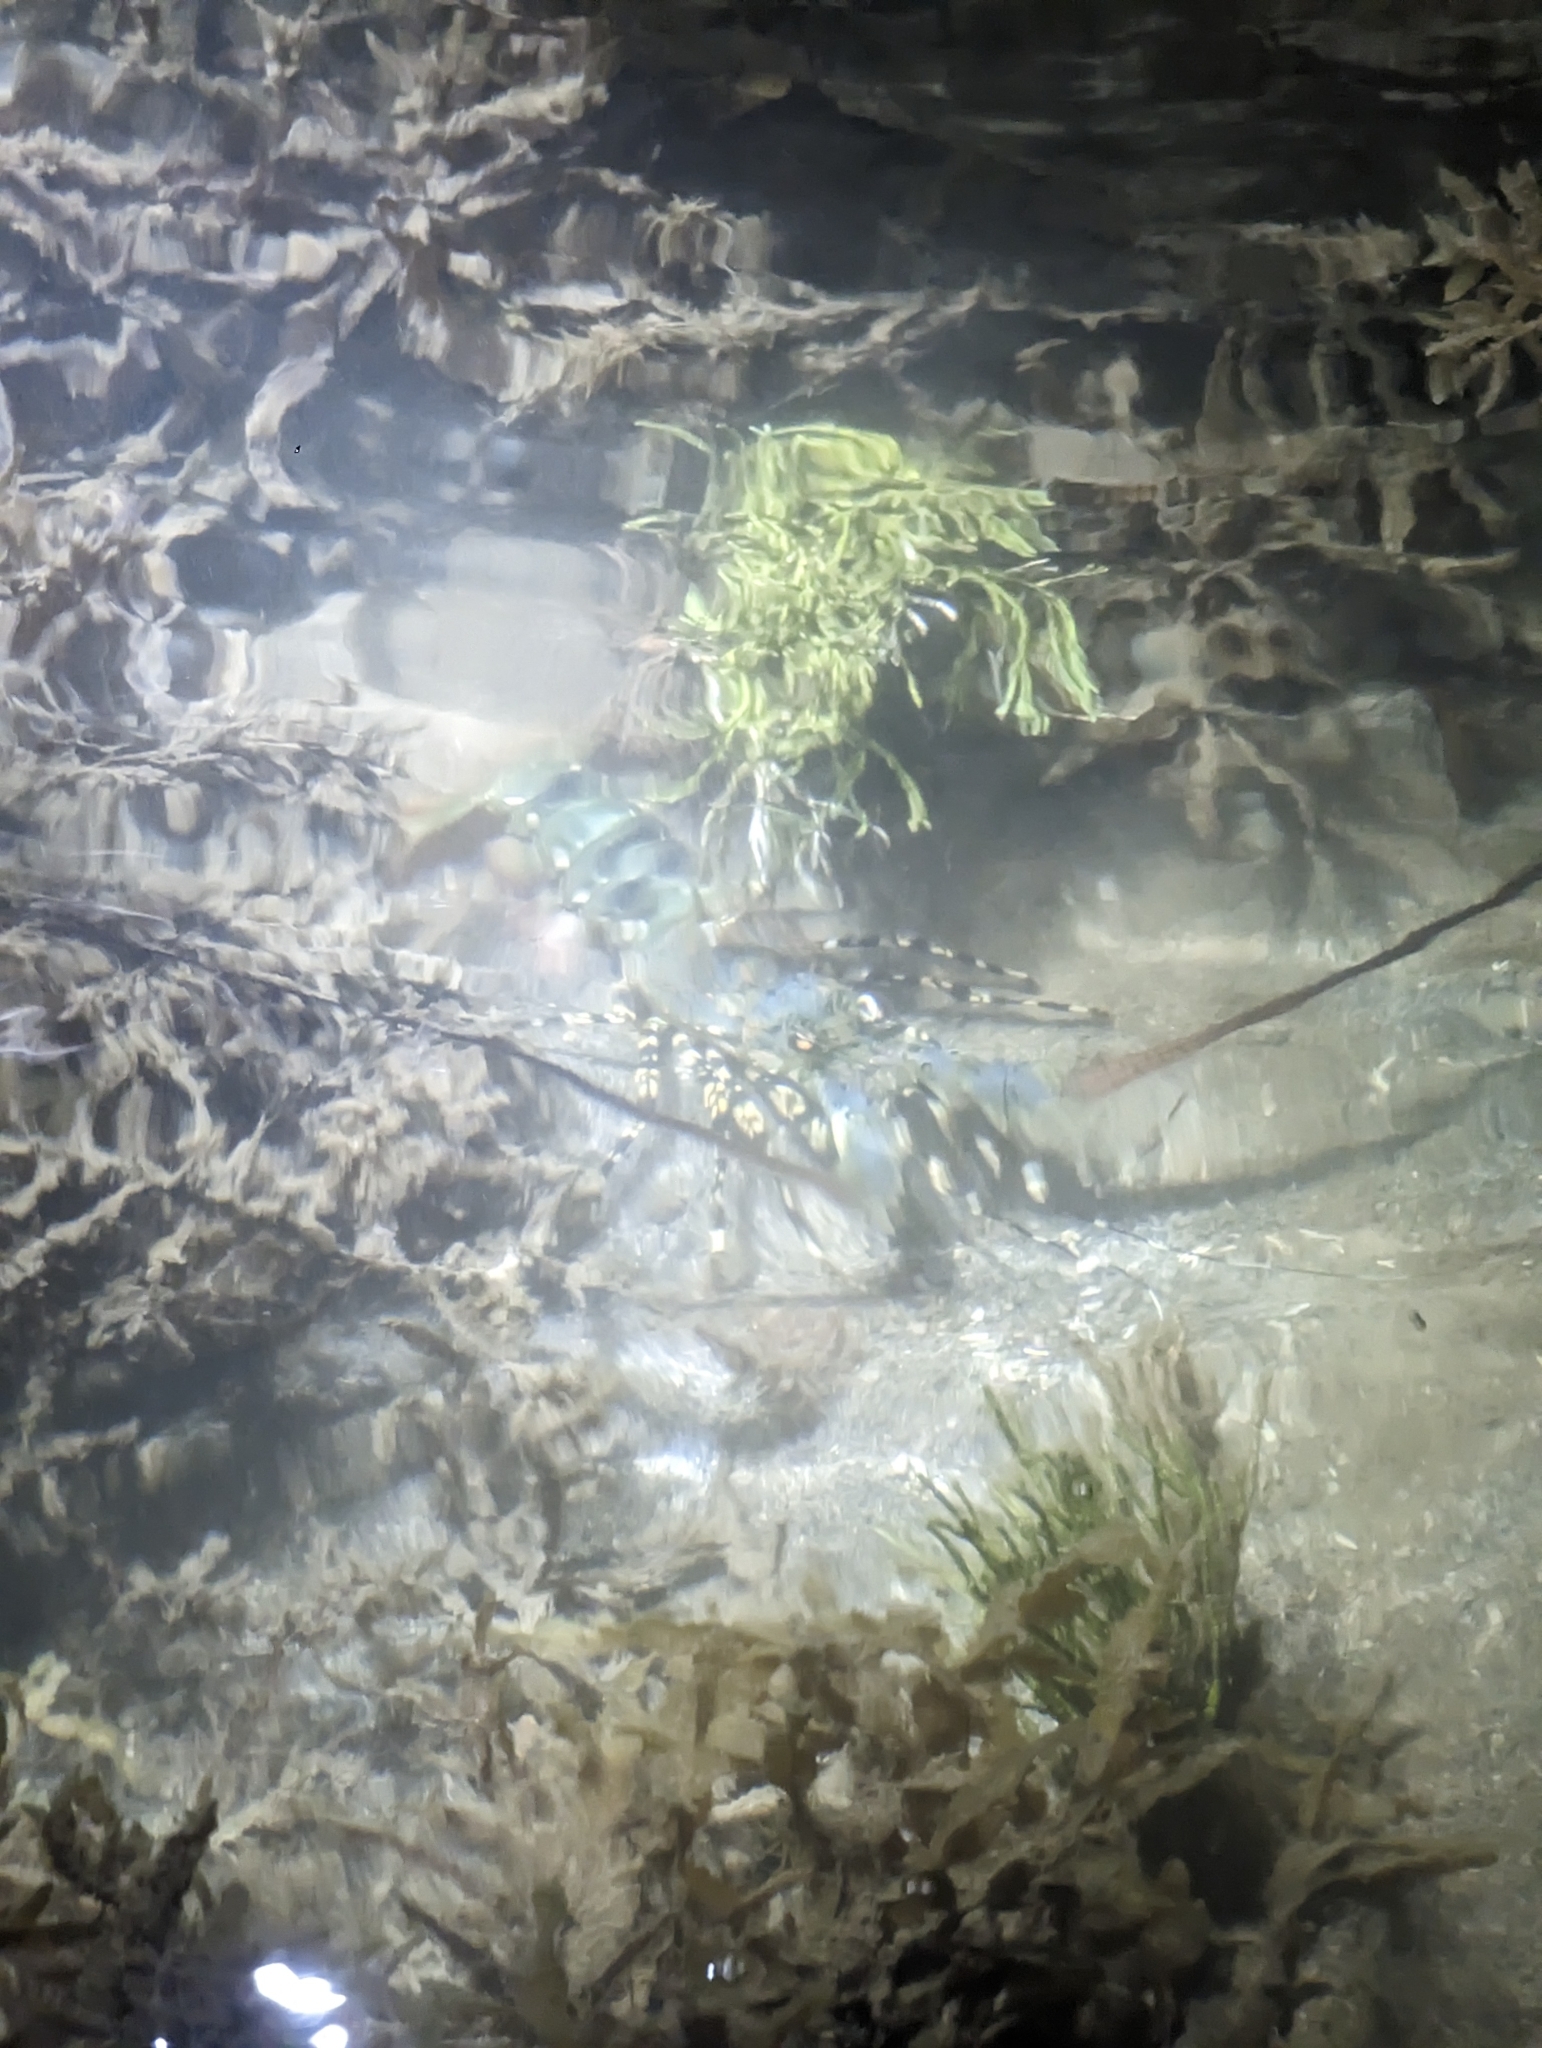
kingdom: Animalia
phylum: Arthropoda
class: Malacostraca
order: Decapoda
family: Palinuridae
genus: Panulirus
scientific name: Panulirus ornatus
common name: Ornate spiny lobster
